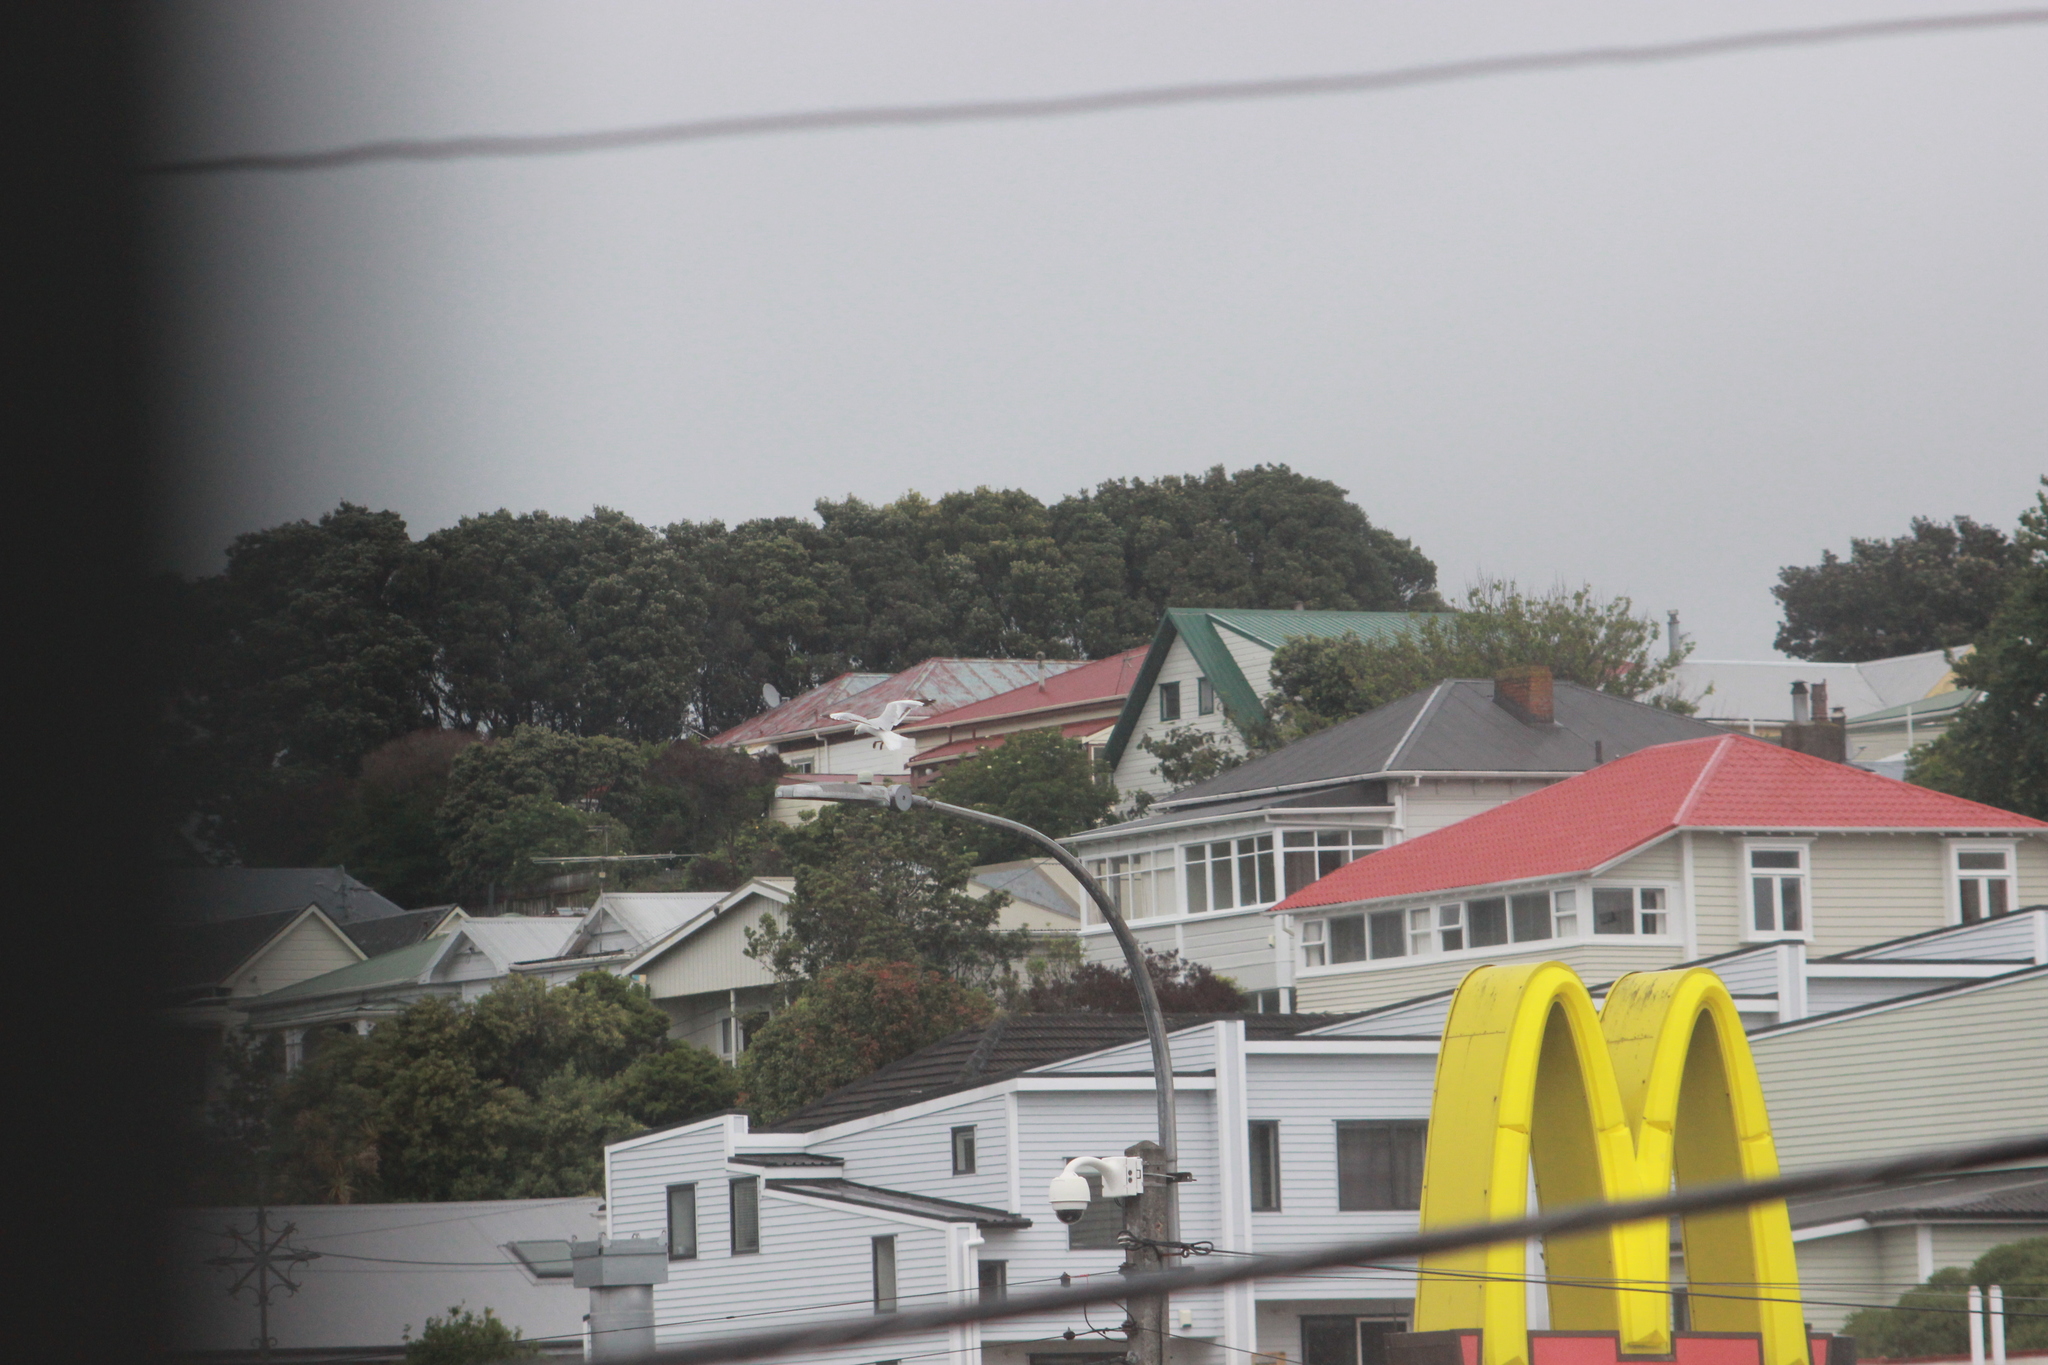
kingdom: Animalia
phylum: Chordata
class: Aves
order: Charadriiformes
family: Laridae
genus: Chroicocephalus
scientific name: Chroicocephalus novaehollandiae
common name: Silver gull
